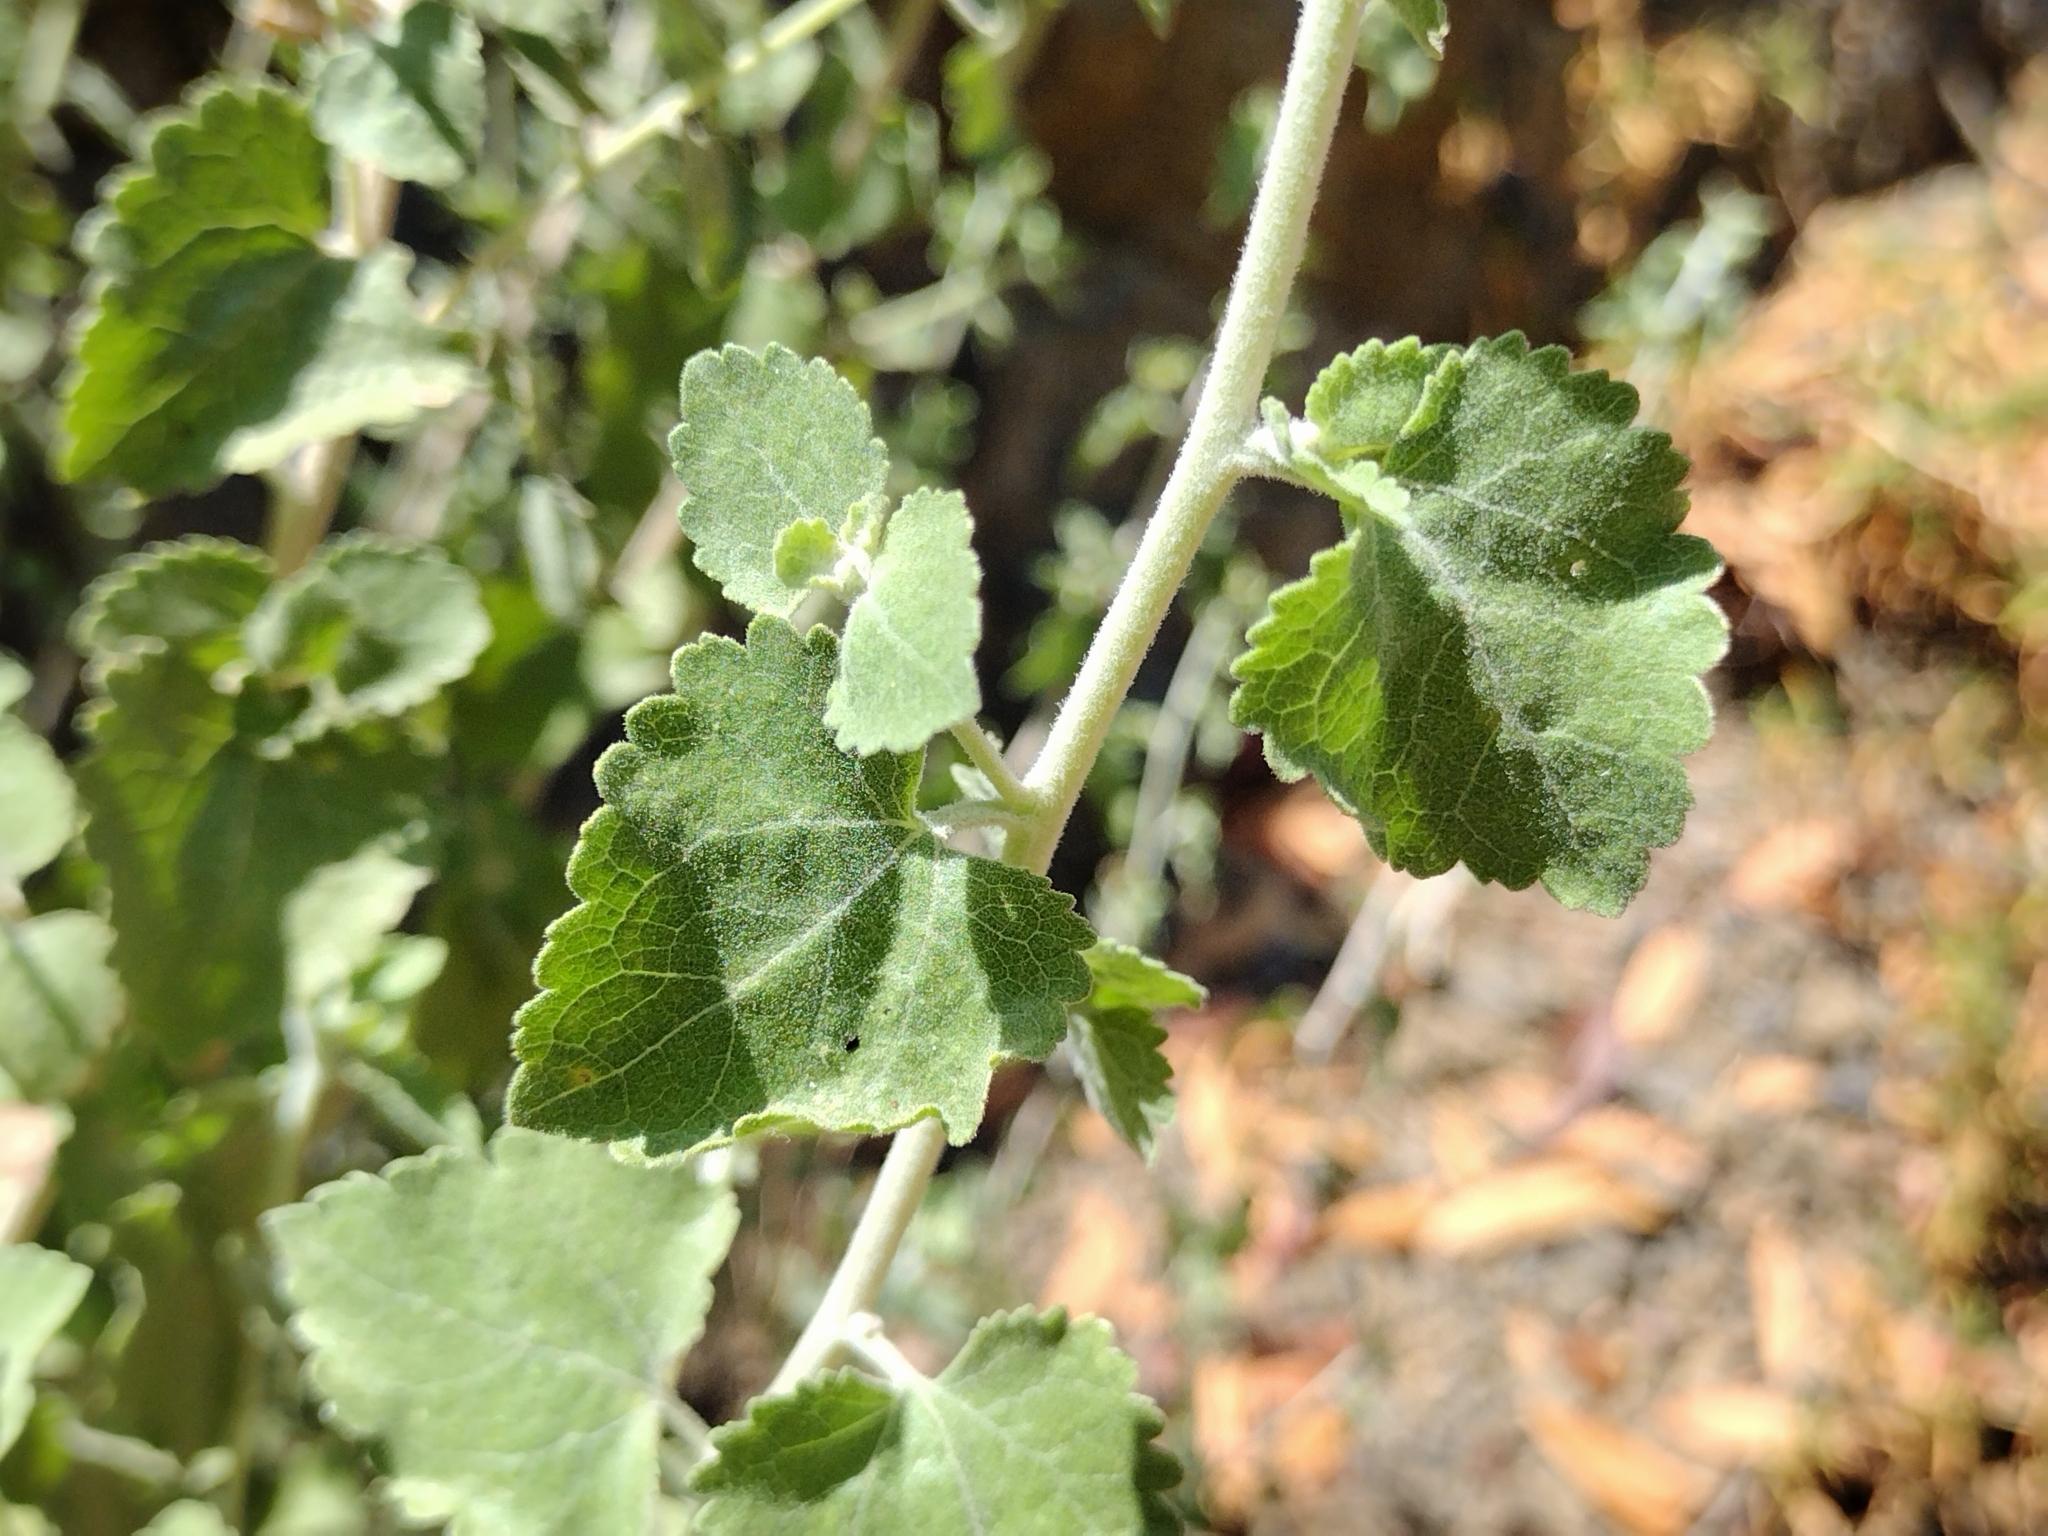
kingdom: Plantae
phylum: Tracheophyta
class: Magnoliopsida
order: Asterales
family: Asteraceae
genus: Brickellia
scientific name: Brickellia californica
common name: California brickellbush
